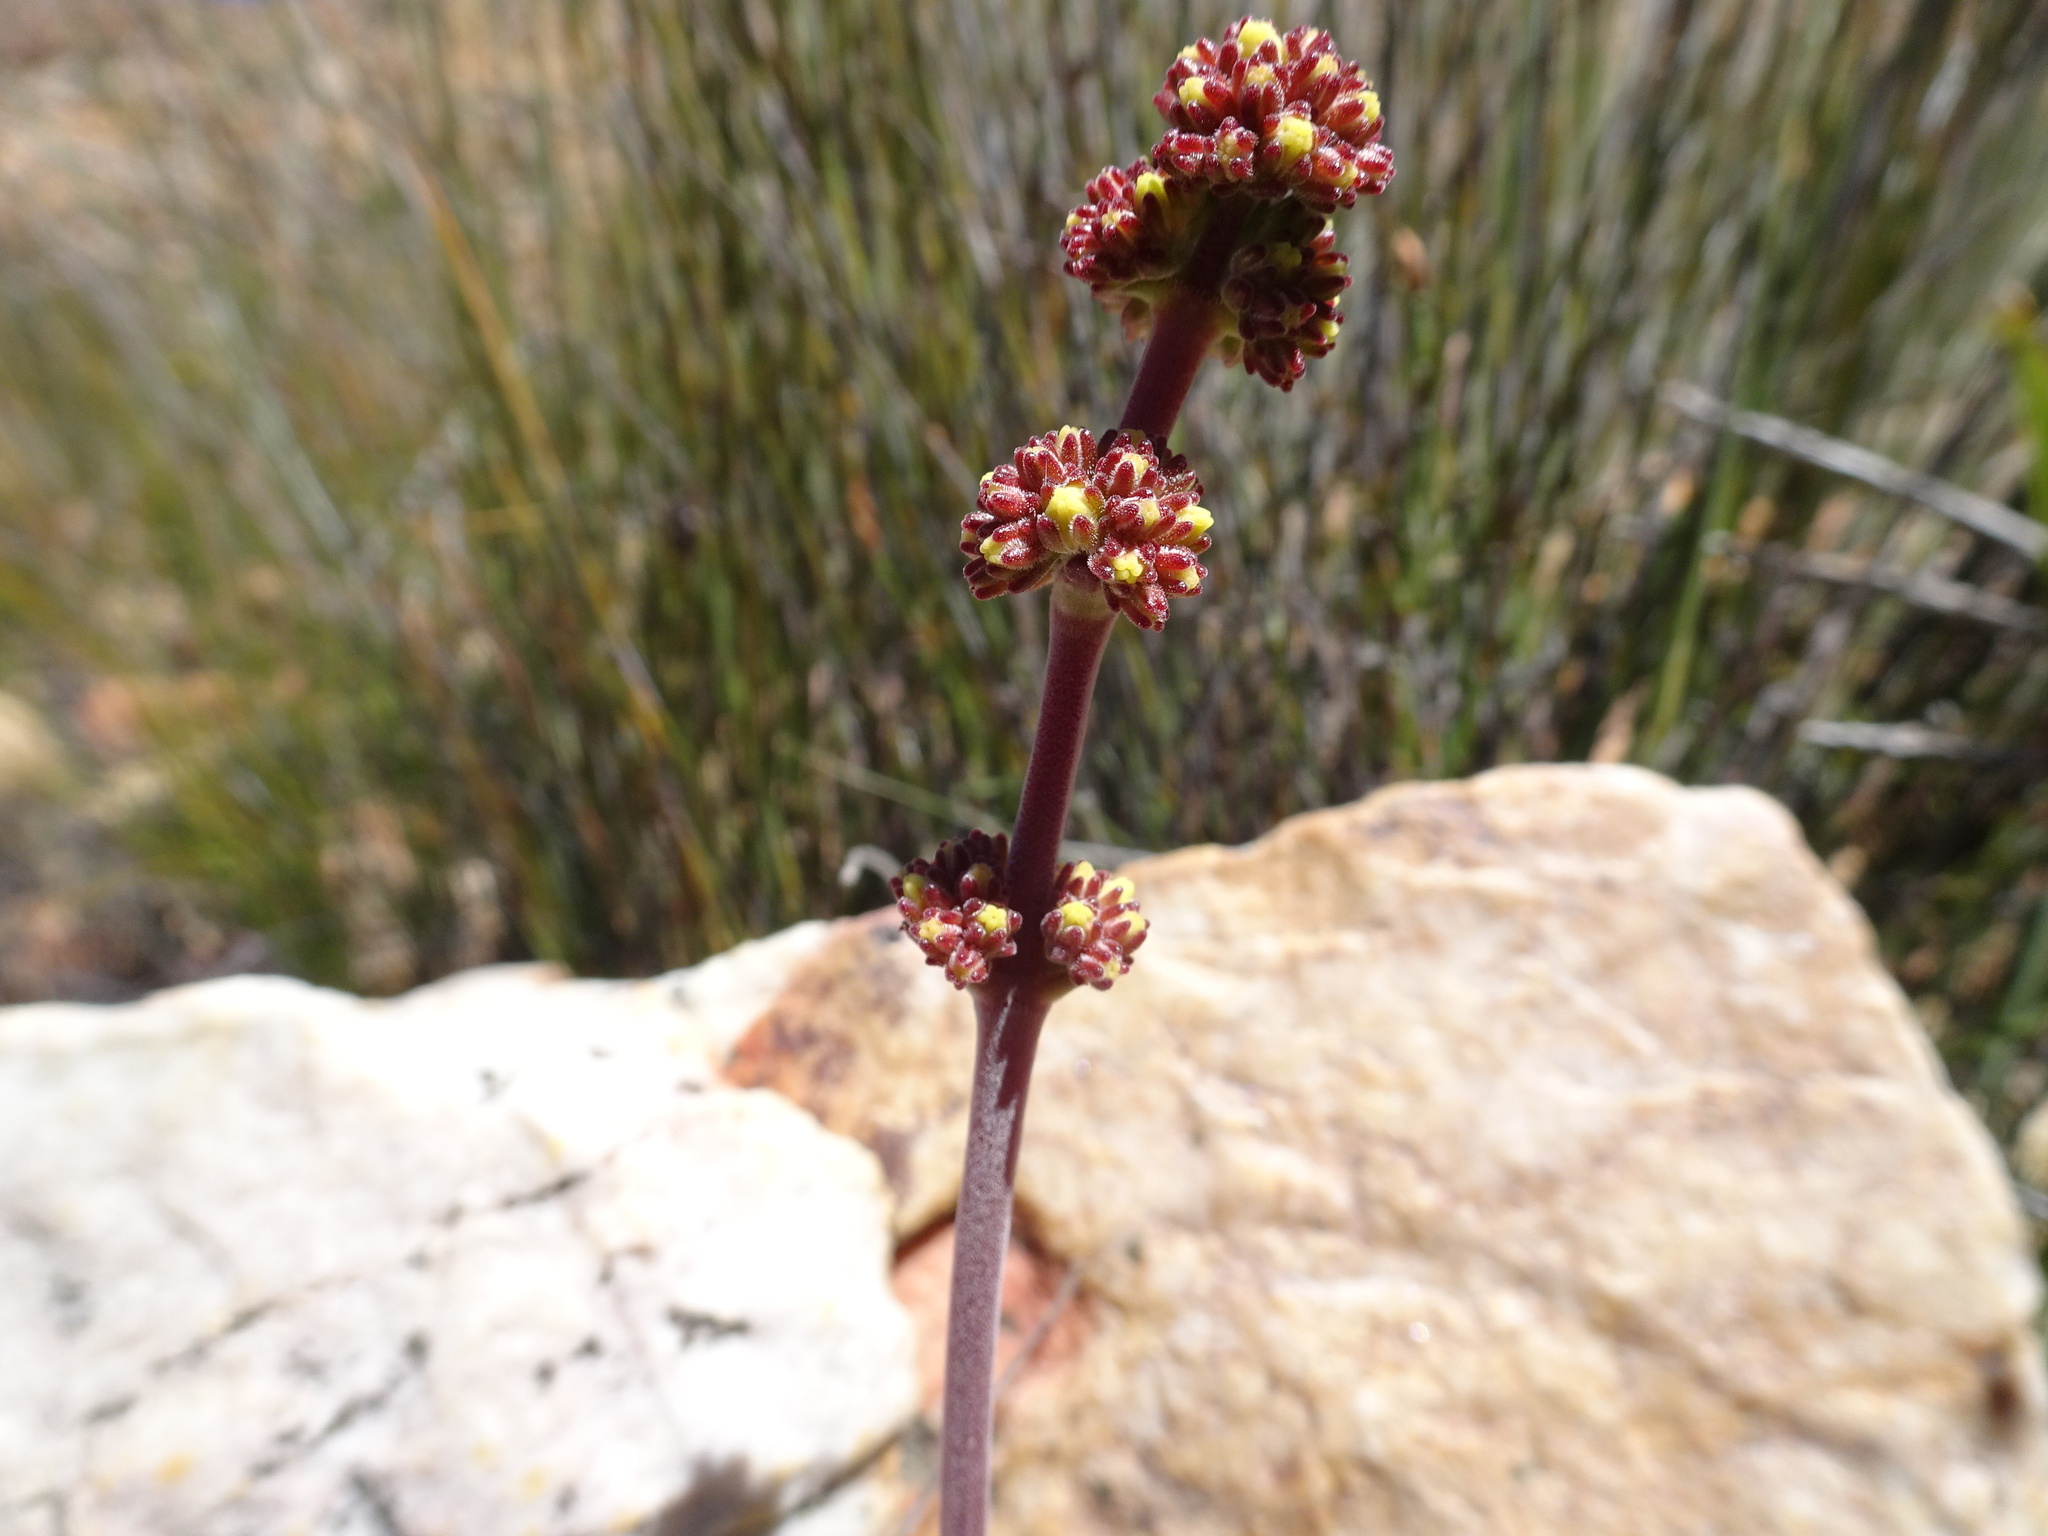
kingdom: Plantae
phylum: Tracheophyta
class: Magnoliopsida
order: Saxifragales
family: Crassulaceae
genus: Crassula
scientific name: Crassula nudicaulis
